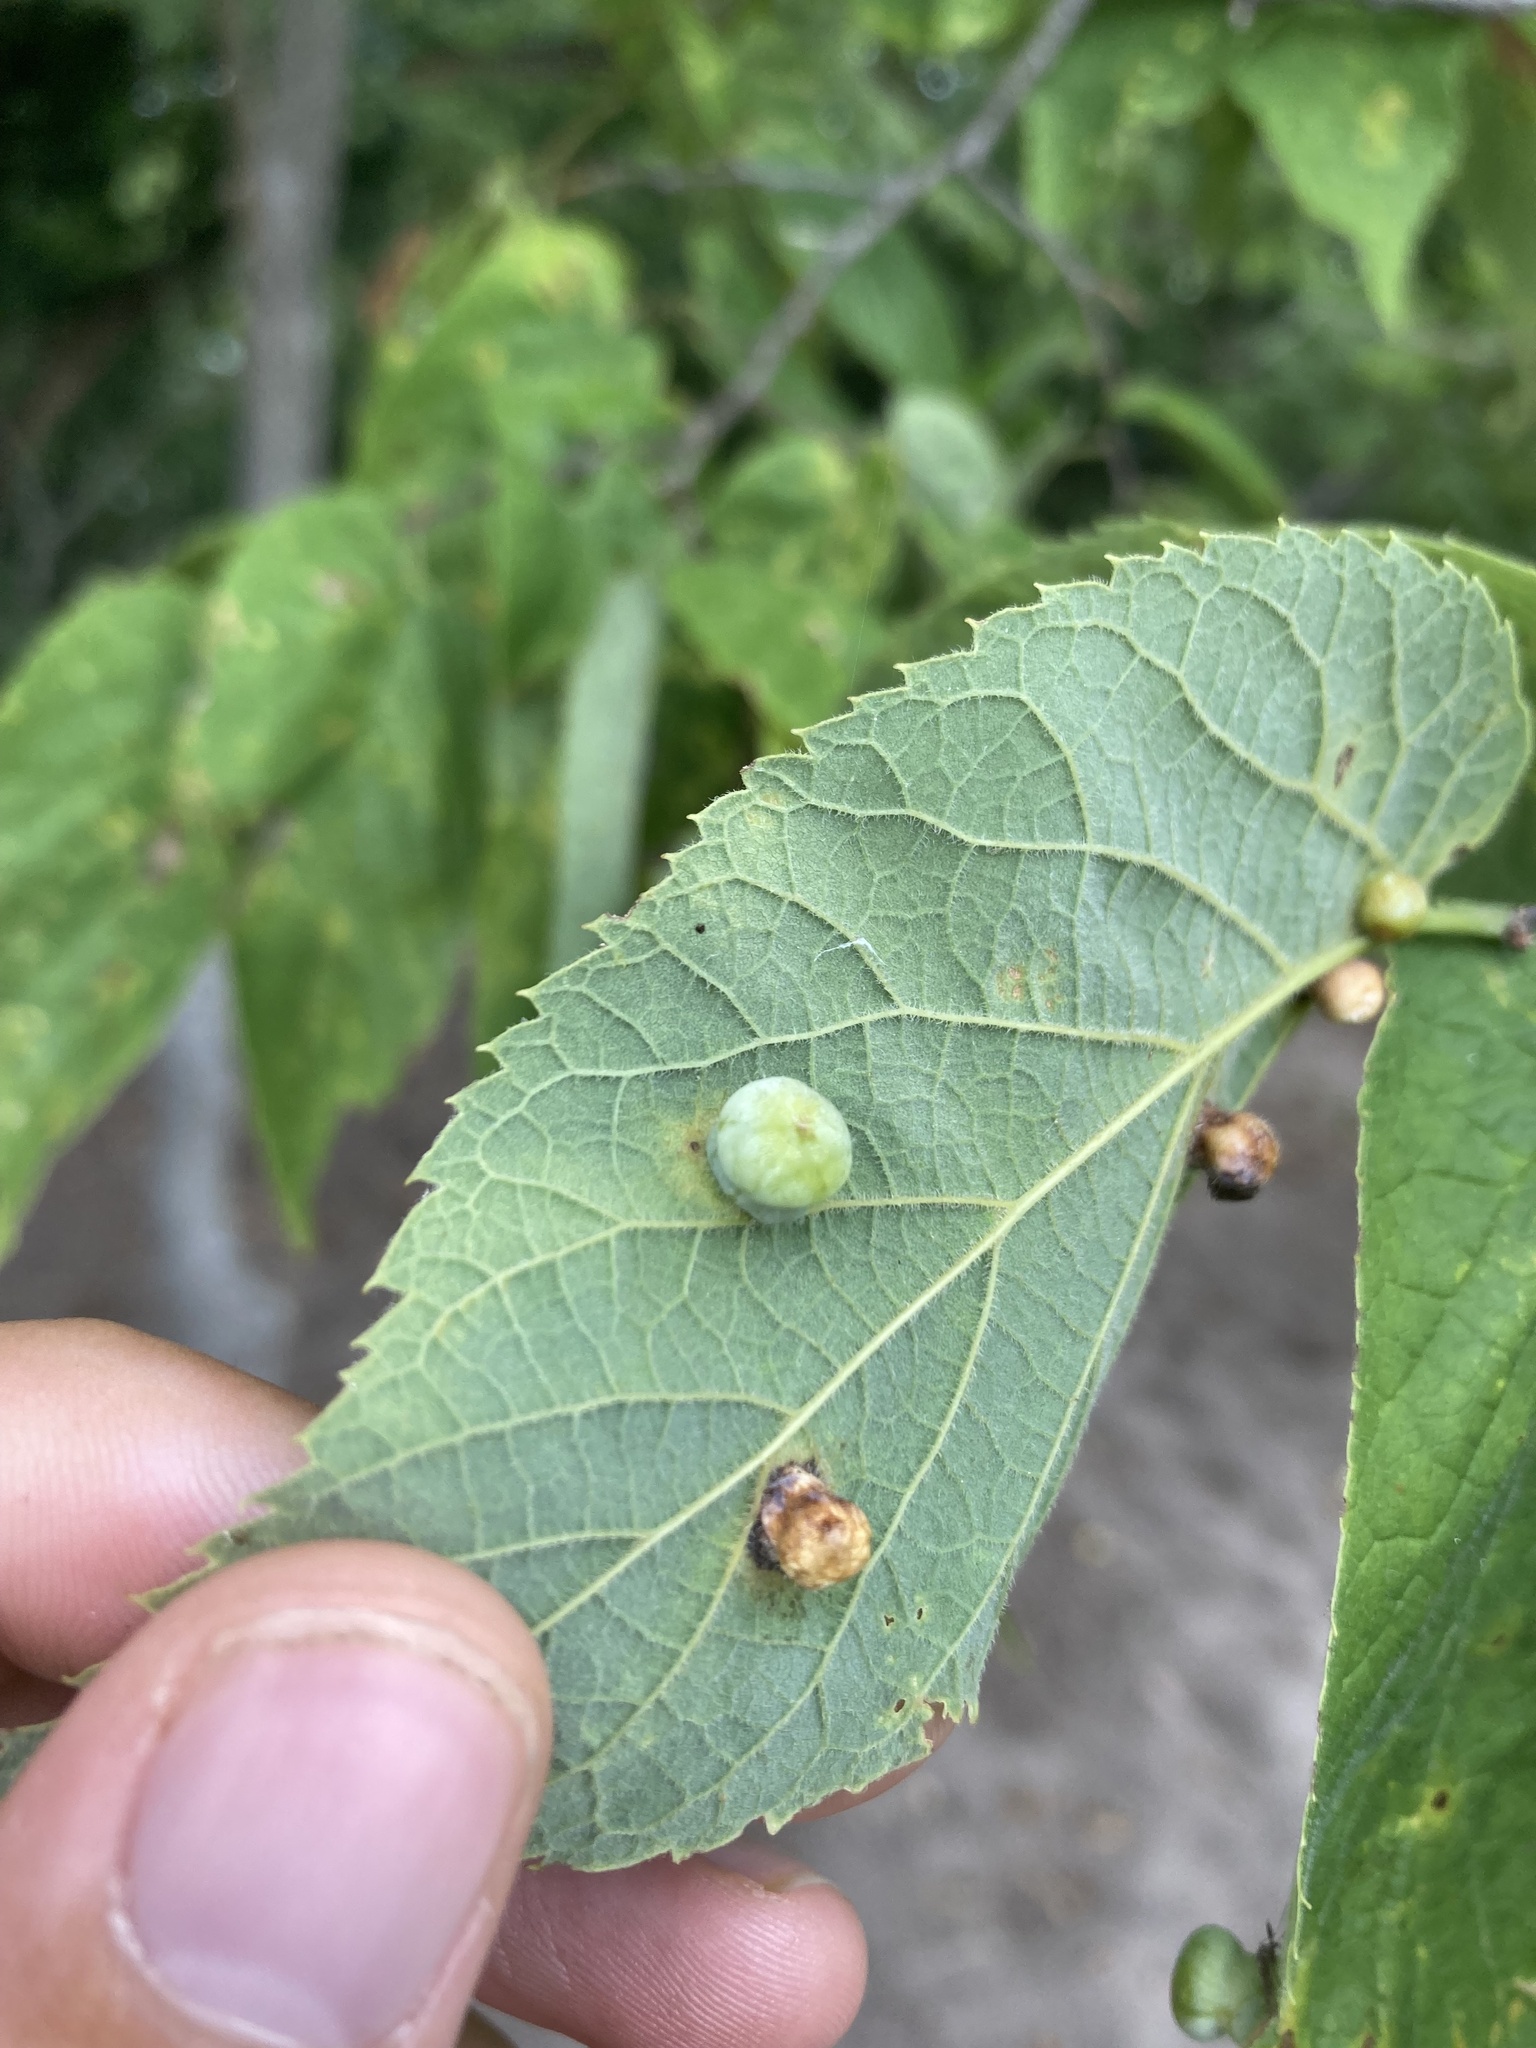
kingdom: Animalia
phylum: Arthropoda
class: Insecta
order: Hemiptera
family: Aphalaridae
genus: Pachypsylla
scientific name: Pachypsylla celtidismamma
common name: Hackberry nipplegall psyllid
